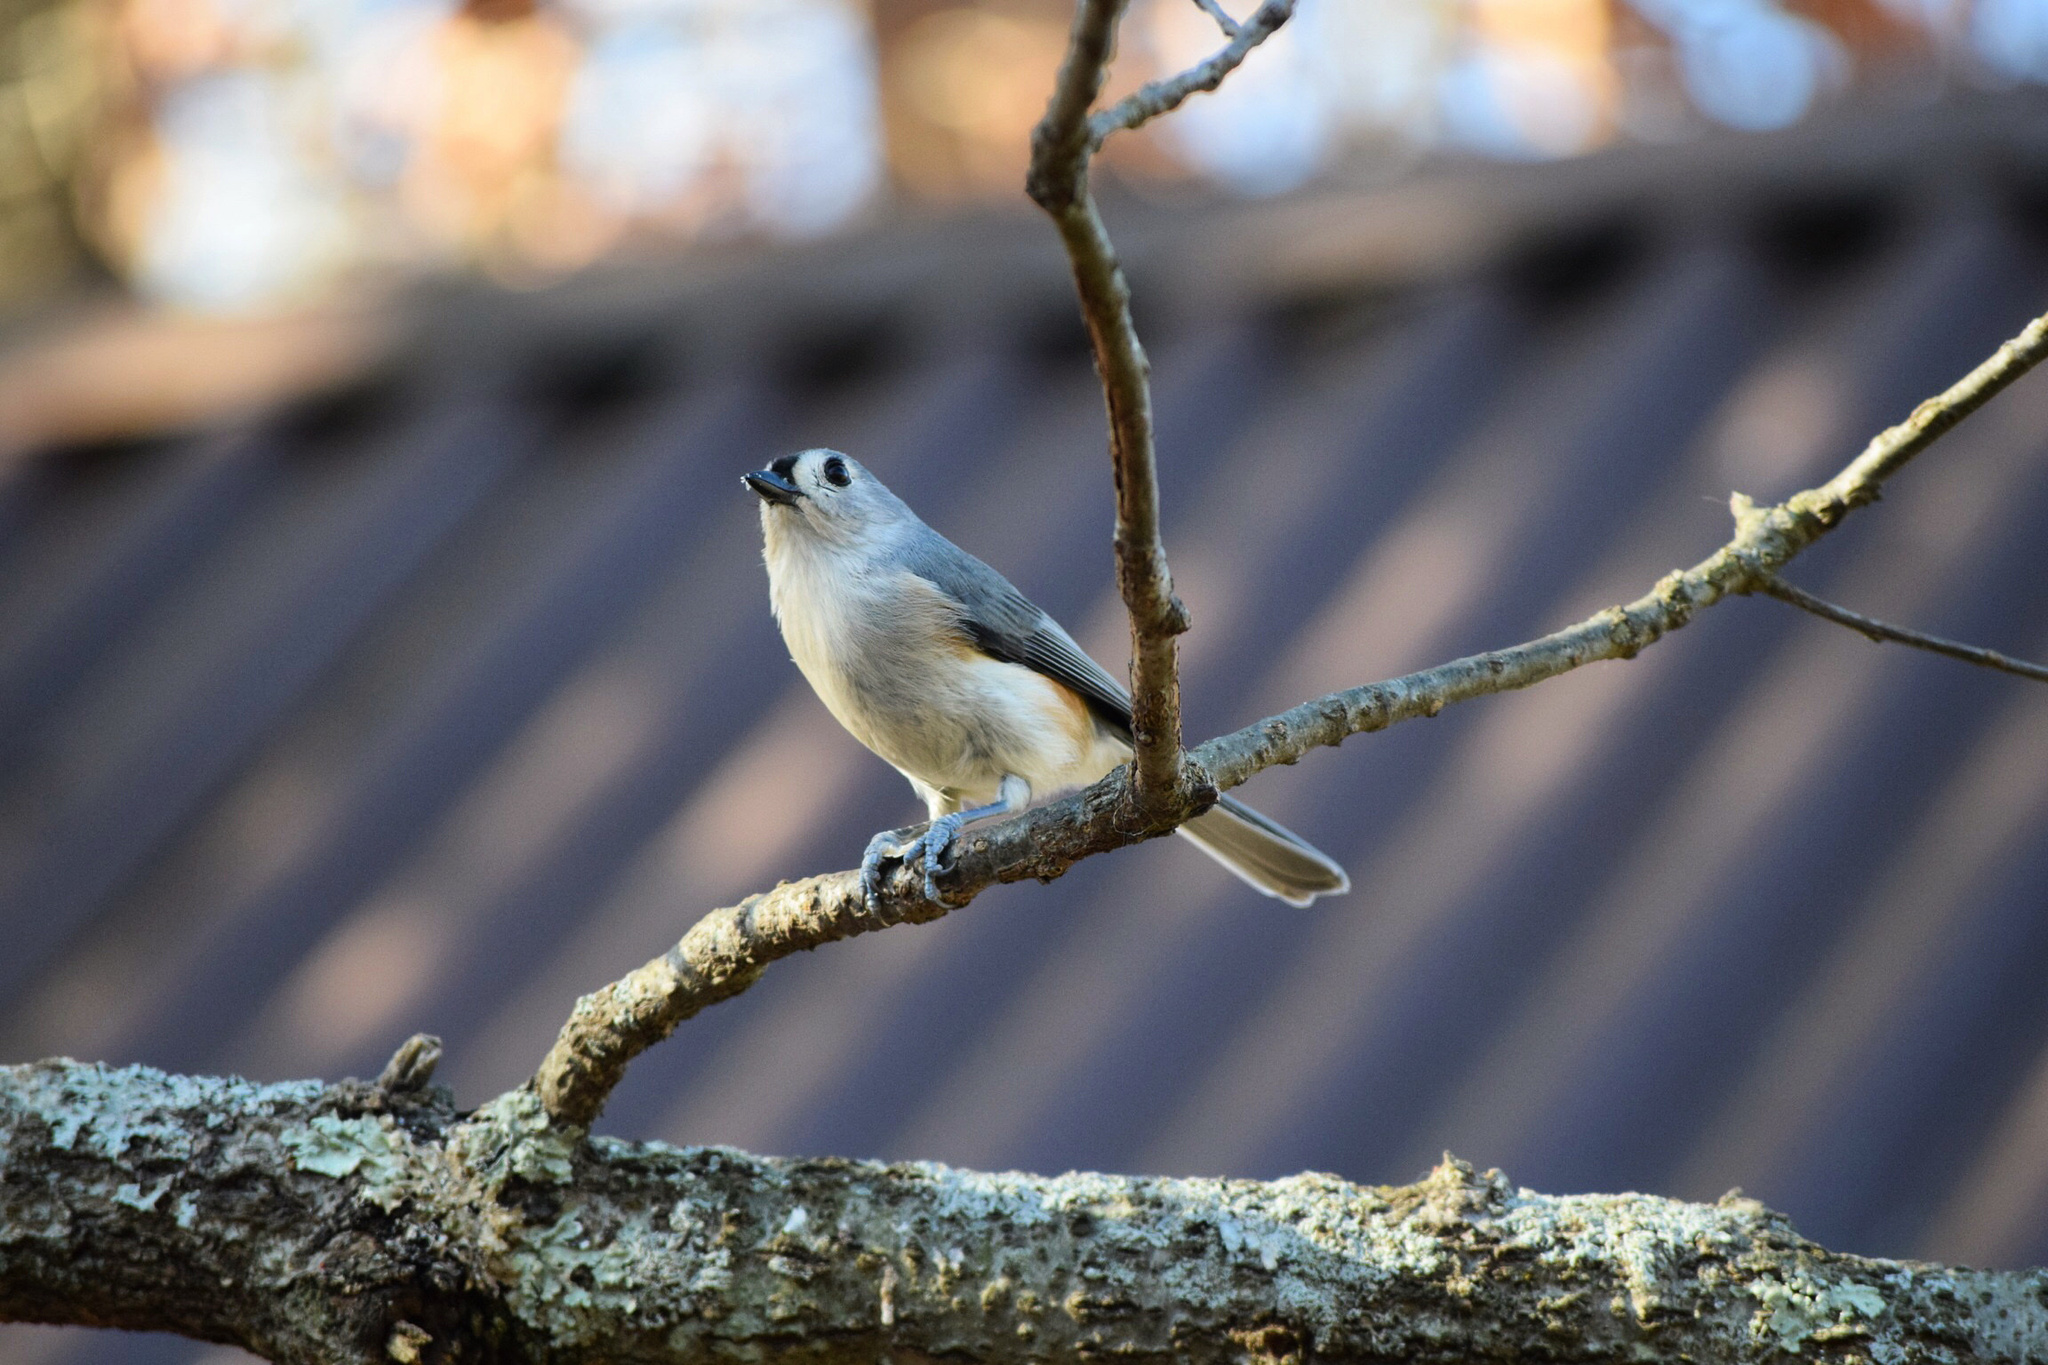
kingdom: Animalia
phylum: Chordata
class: Aves
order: Passeriformes
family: Paridae
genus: Baeolophus
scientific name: Baeolophus bicolor
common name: Tufted titmouse
